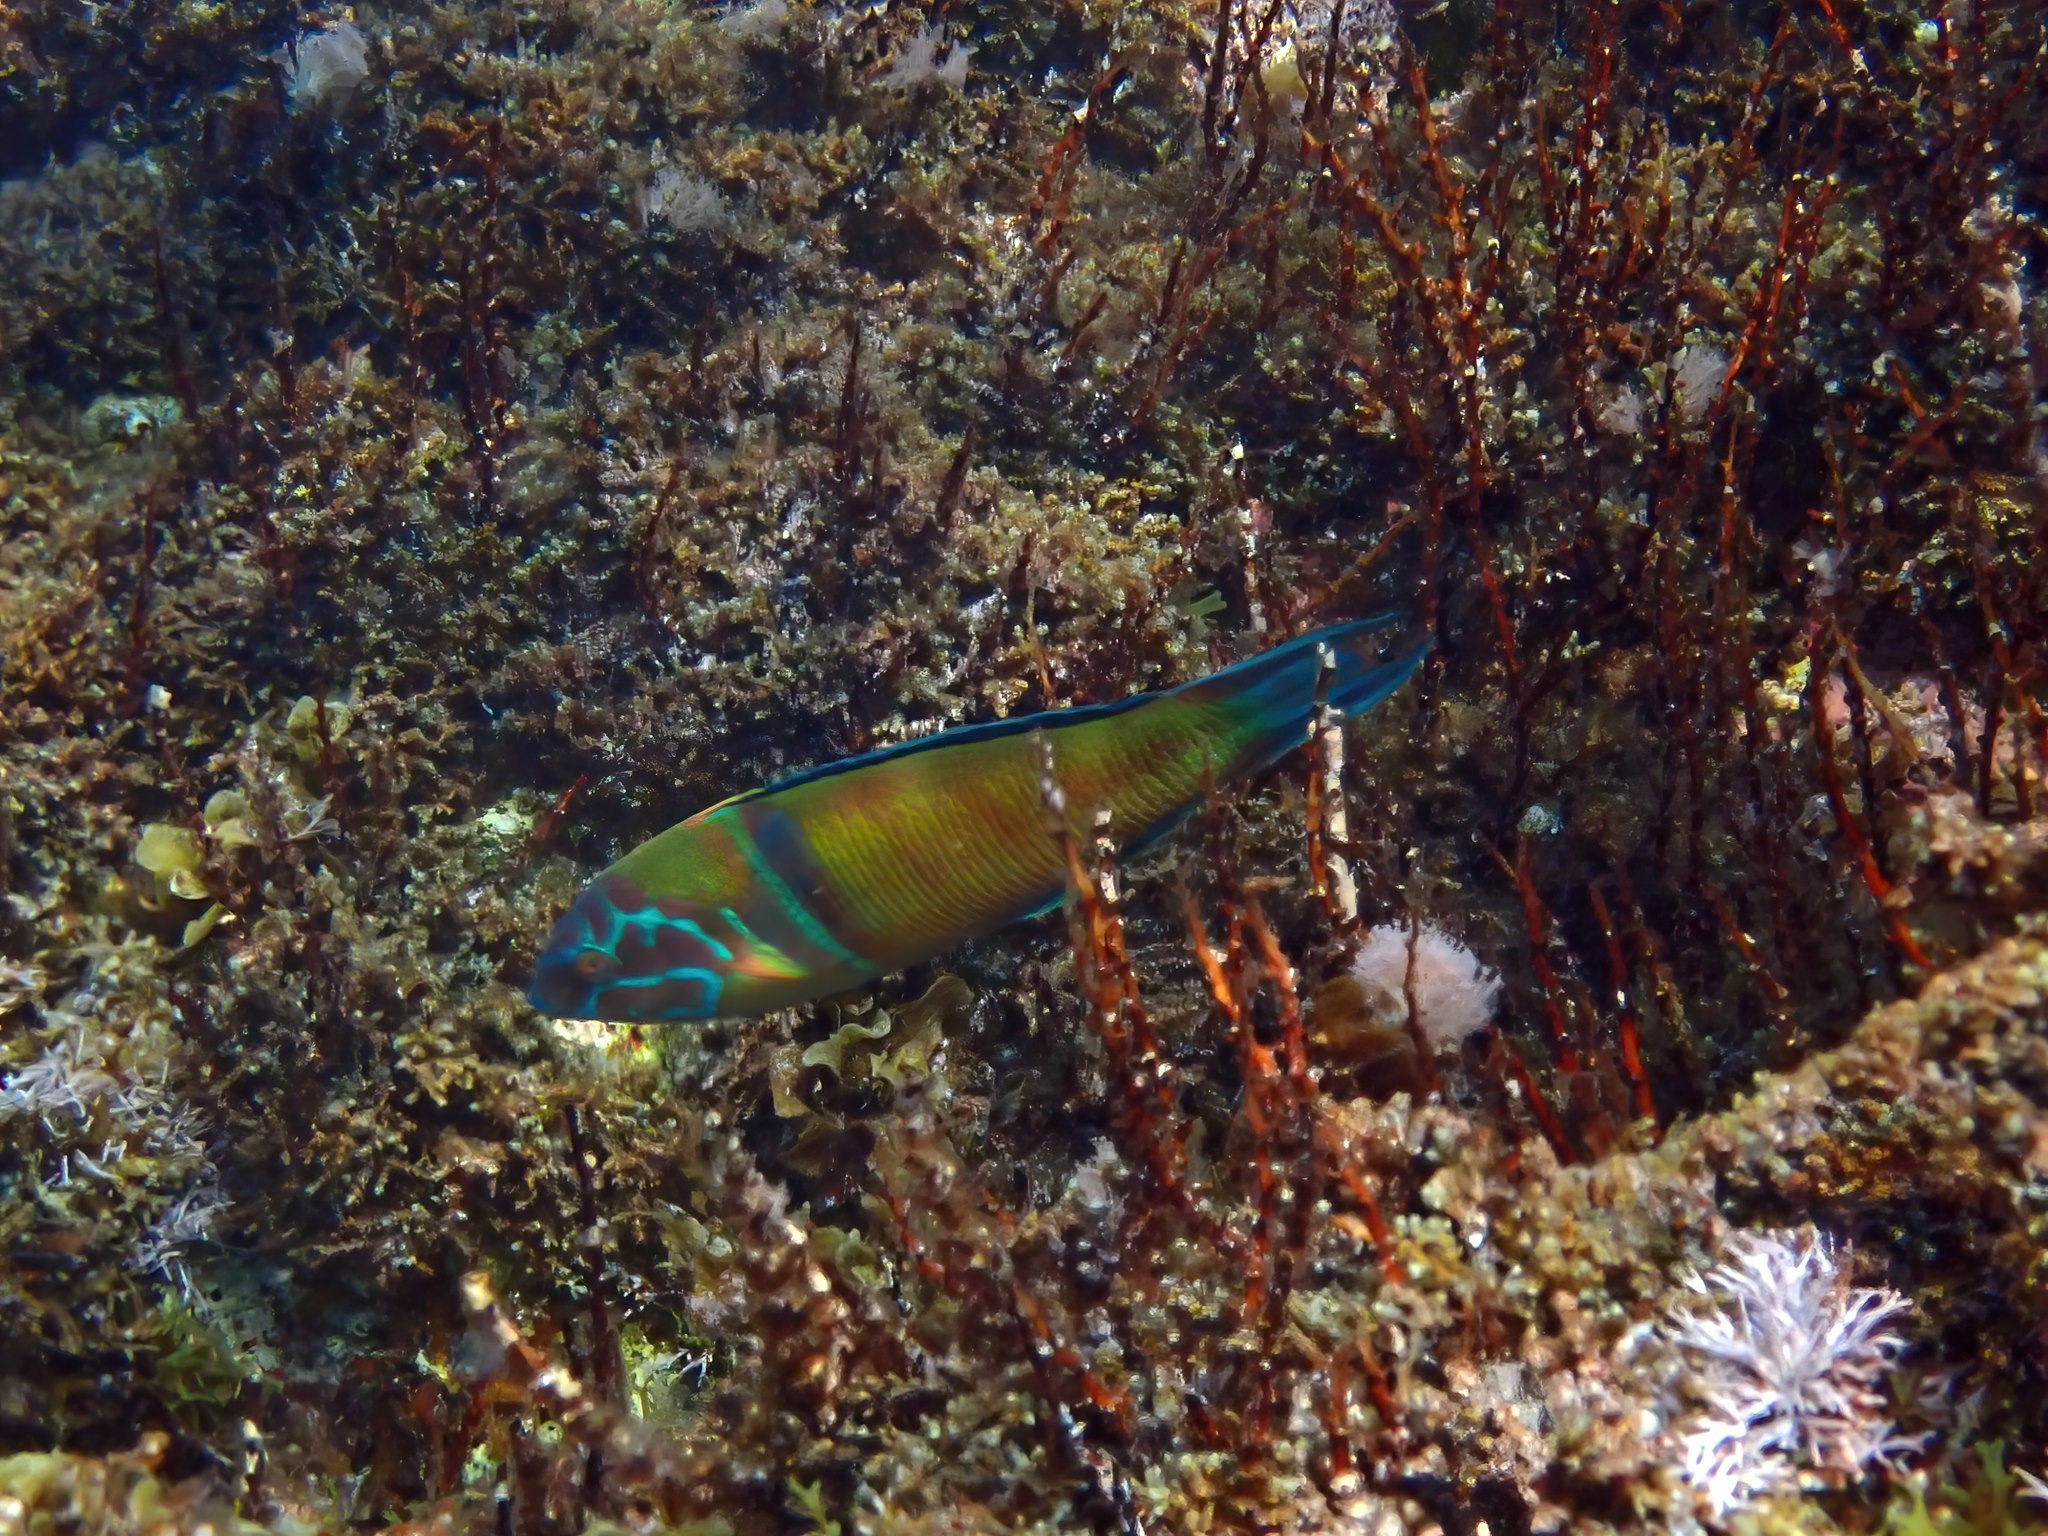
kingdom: Animalia
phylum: Chordata
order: Perciformes
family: Labridae
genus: Thalassoma
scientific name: Thalassoma pavo
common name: Ornate wrasse
